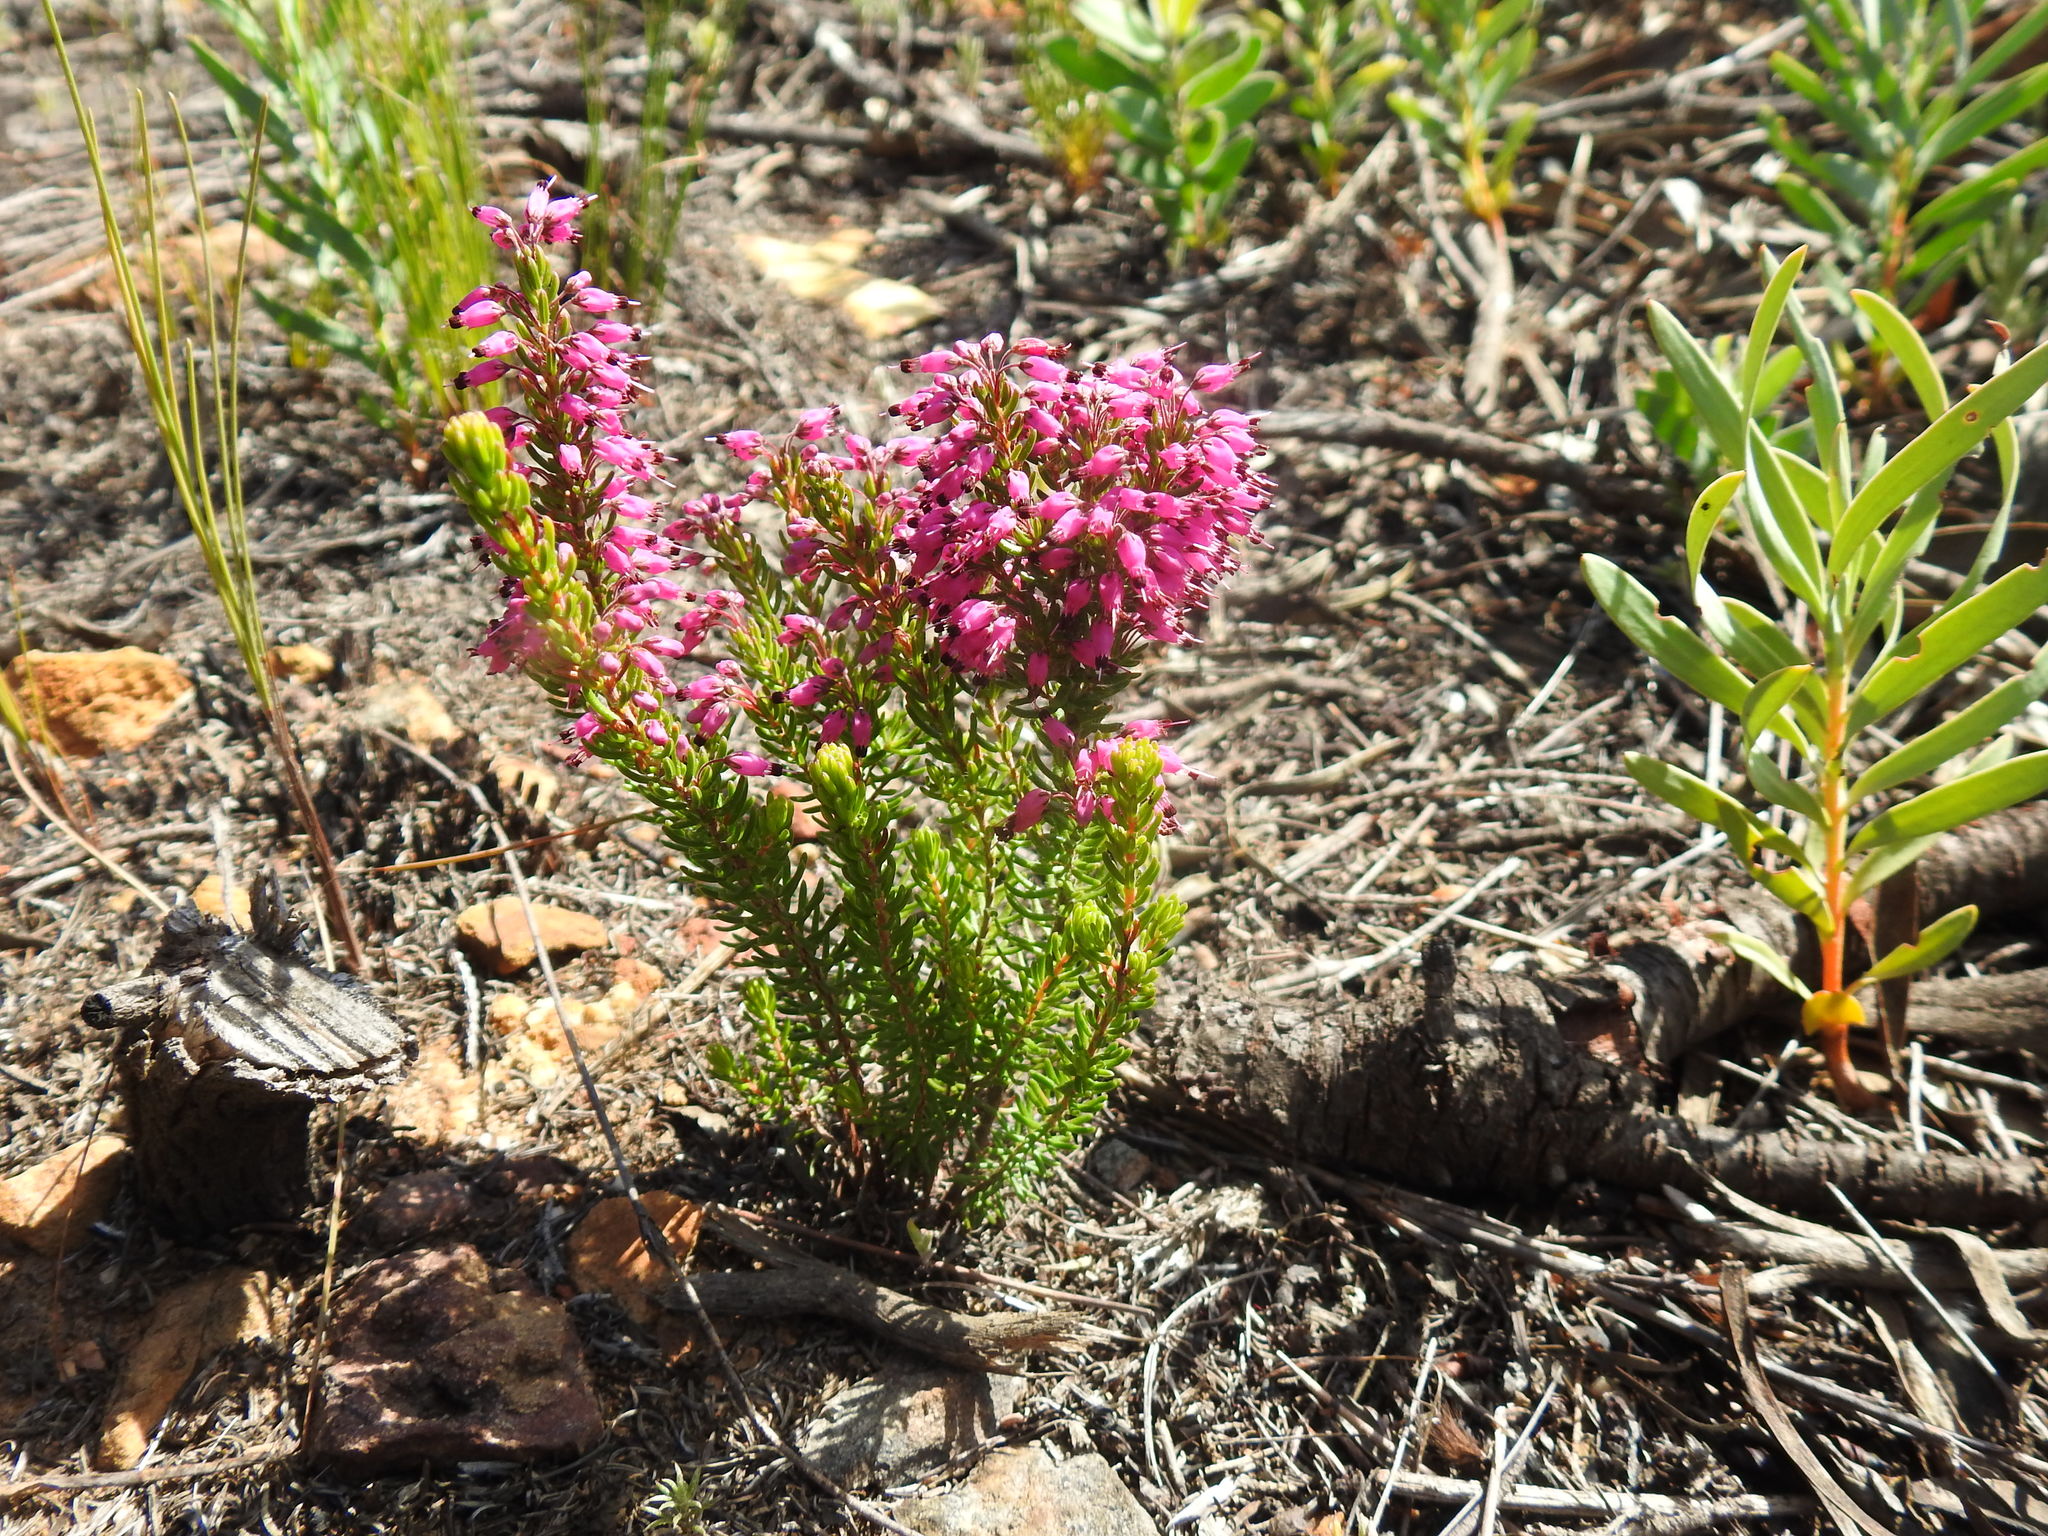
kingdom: Plantae
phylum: Tracheophyta
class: Magnoliopsida
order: Ericales
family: Ericaceae
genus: Erica
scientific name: Erica nudiflora
